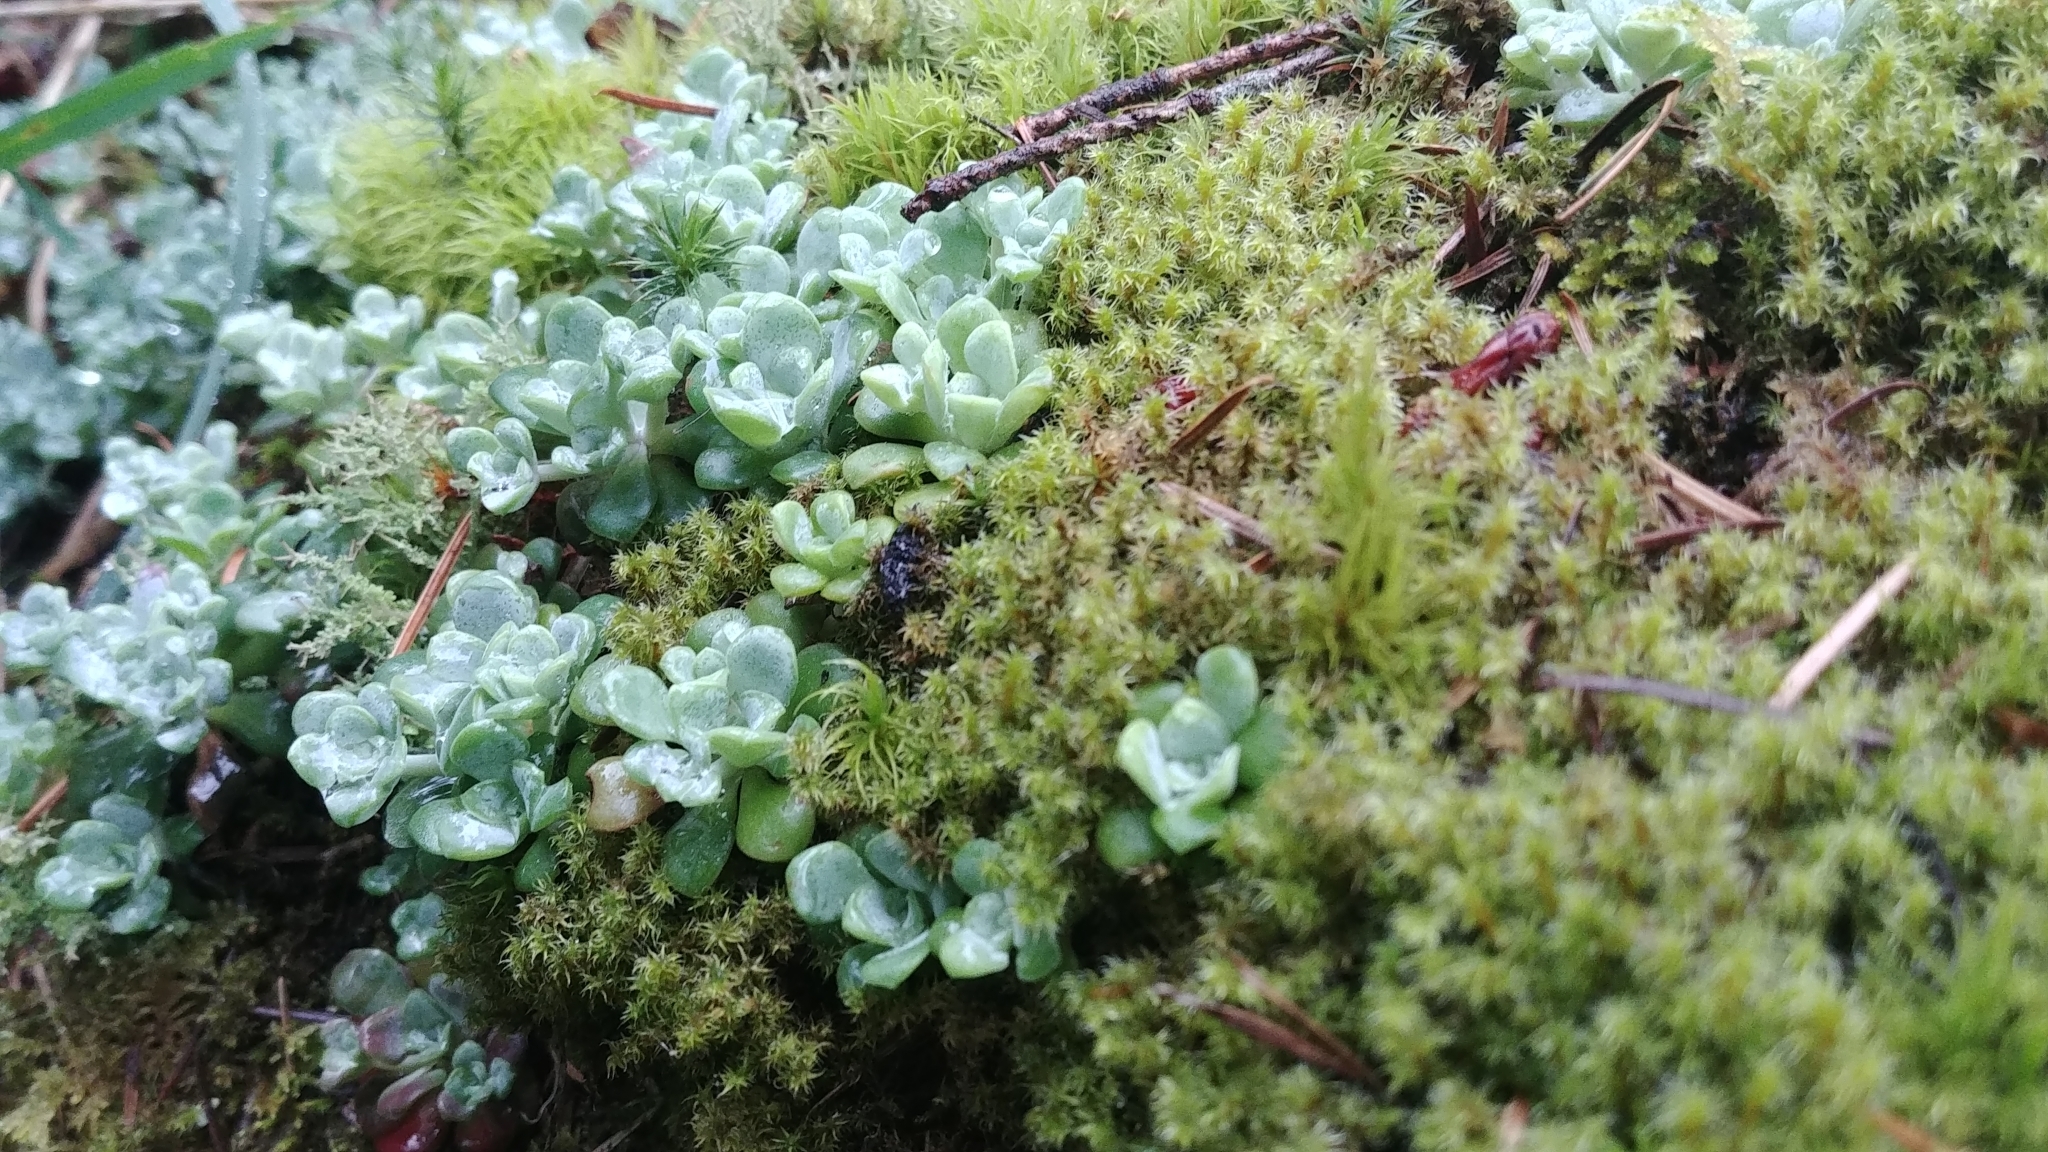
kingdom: Plantae
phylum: Tracheophyta
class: Magnoliopsida
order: Saxifragales
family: Crassulaceae
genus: Sedum
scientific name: Sedum spathulifolium
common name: Colorado stonecrop
